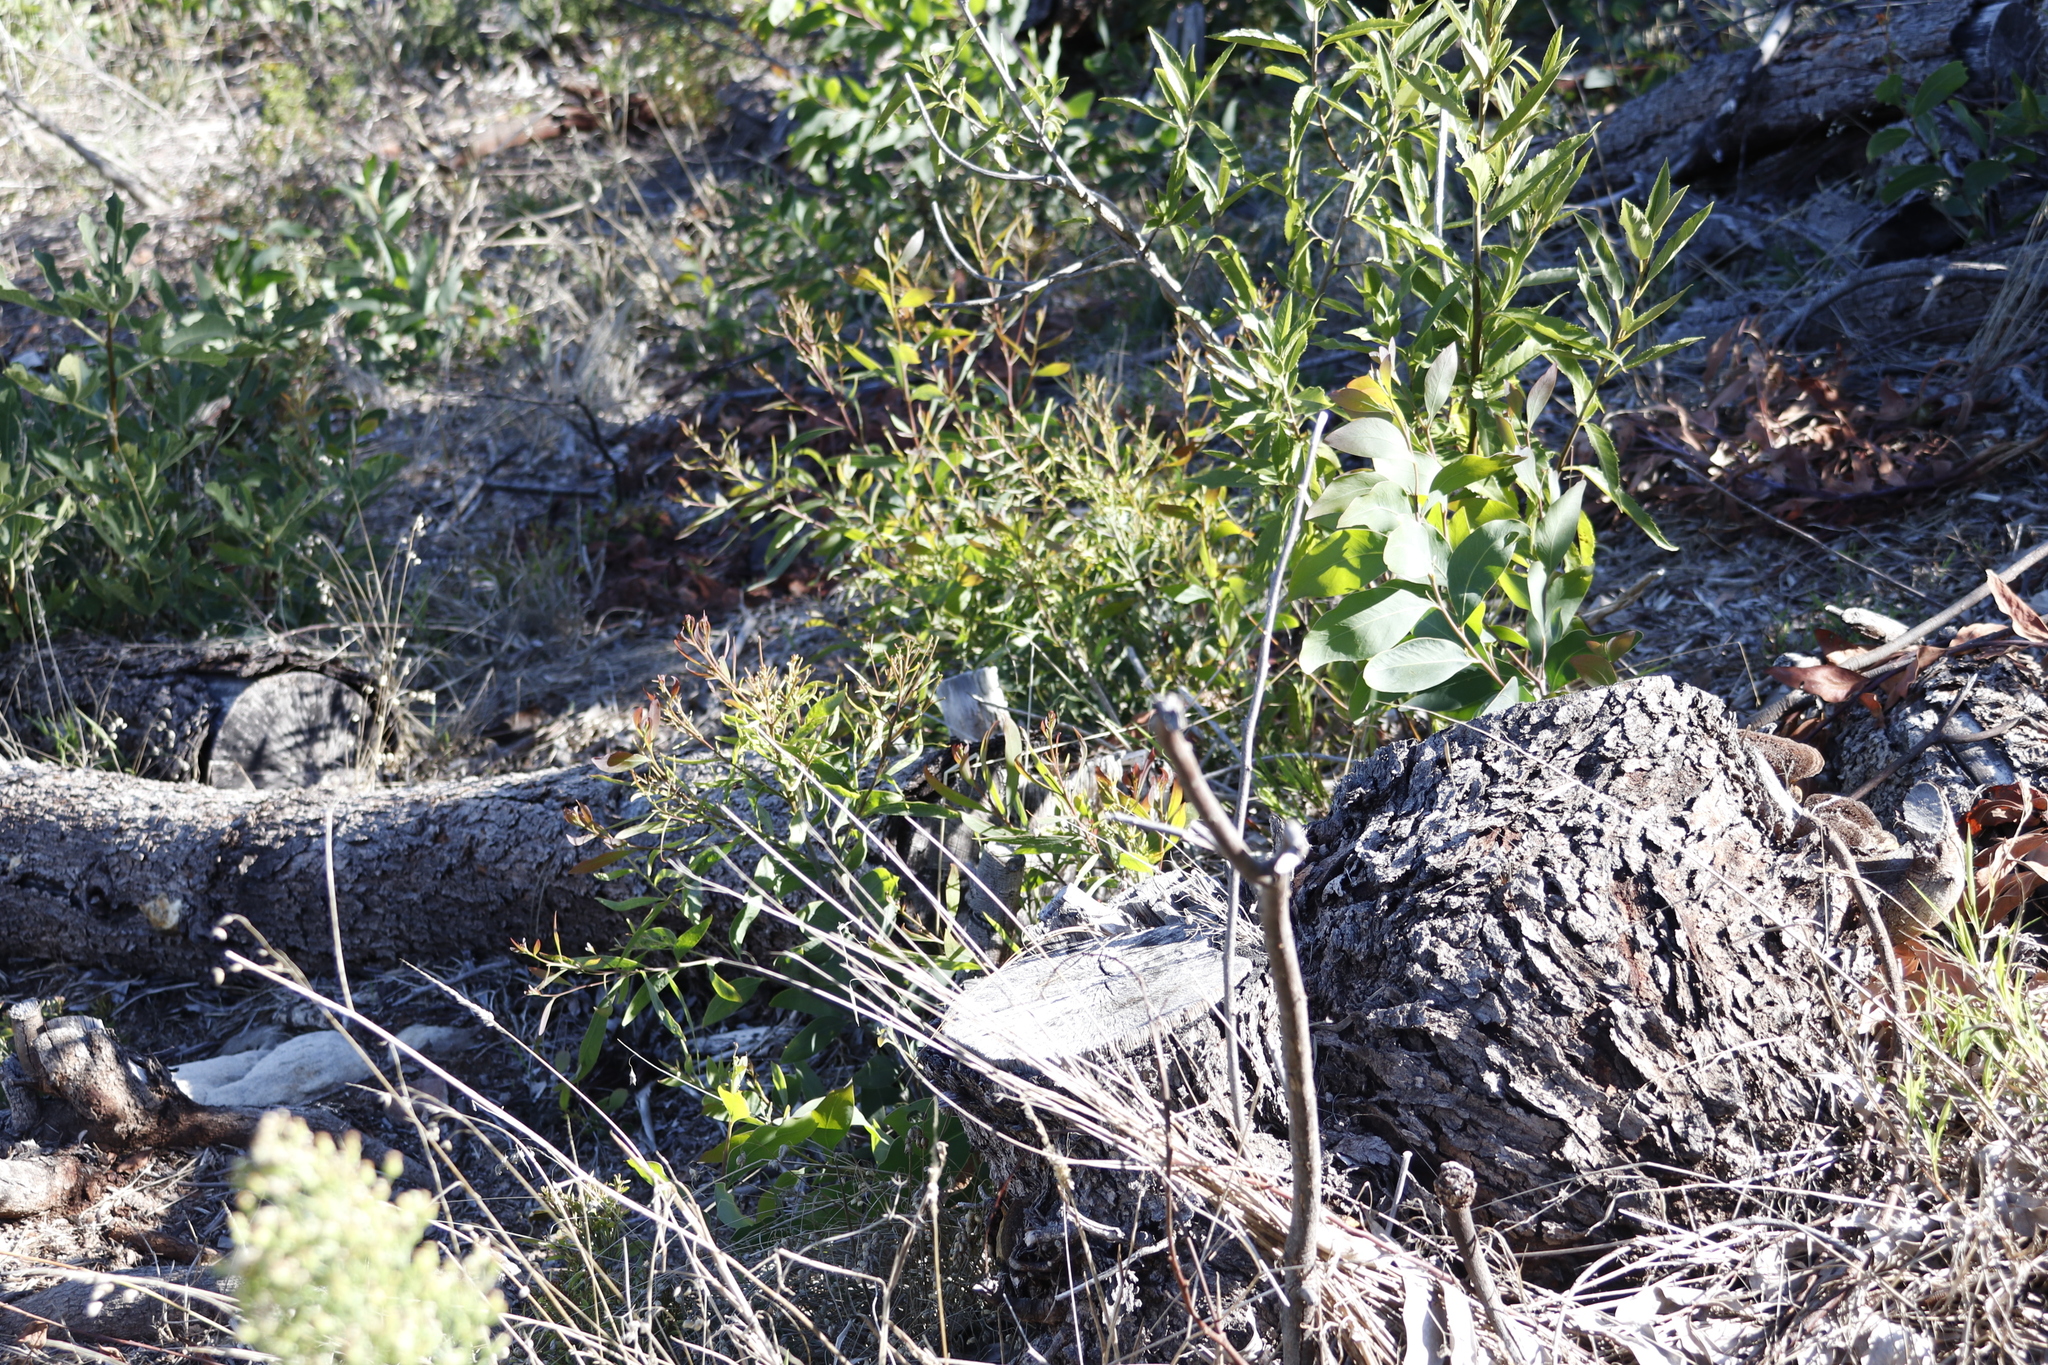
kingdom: Plantae
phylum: Tracheophyta
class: Magnoliopsida
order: Fabales
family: Fabaceae
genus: Acacia
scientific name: Acacia falciformis
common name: Tanning wattle
